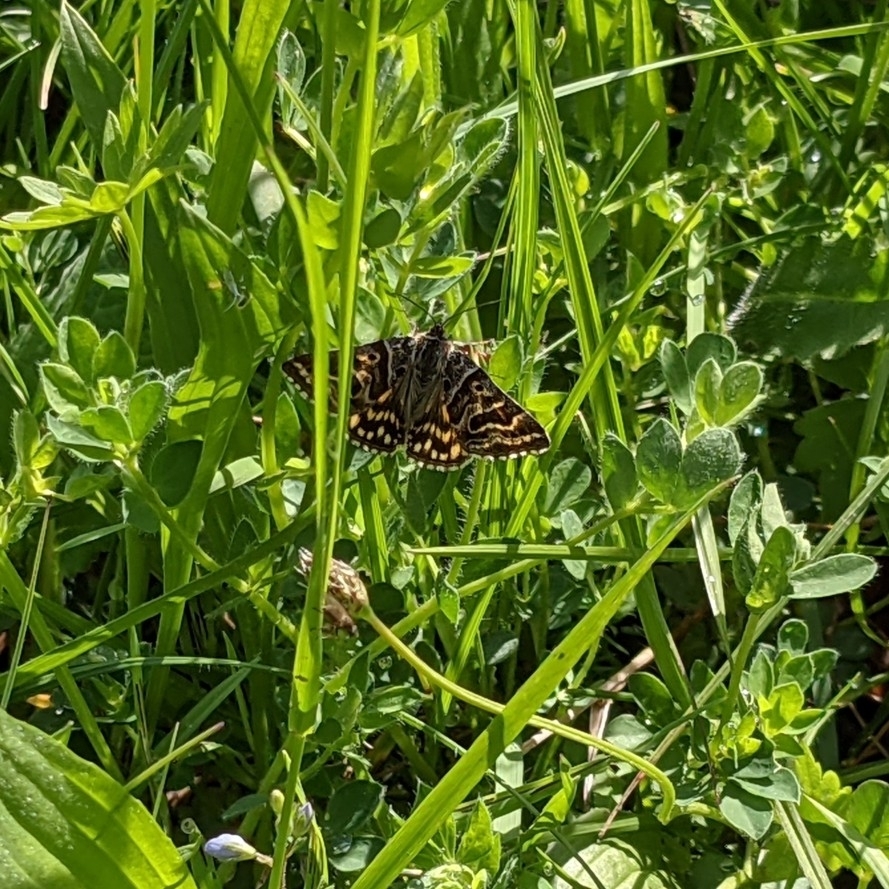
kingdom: Animalia
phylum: Arthropoda
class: Insecta
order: Lepidoptera
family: Erebidae
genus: Callistege
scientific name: Callistege mi
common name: Mother shipton
